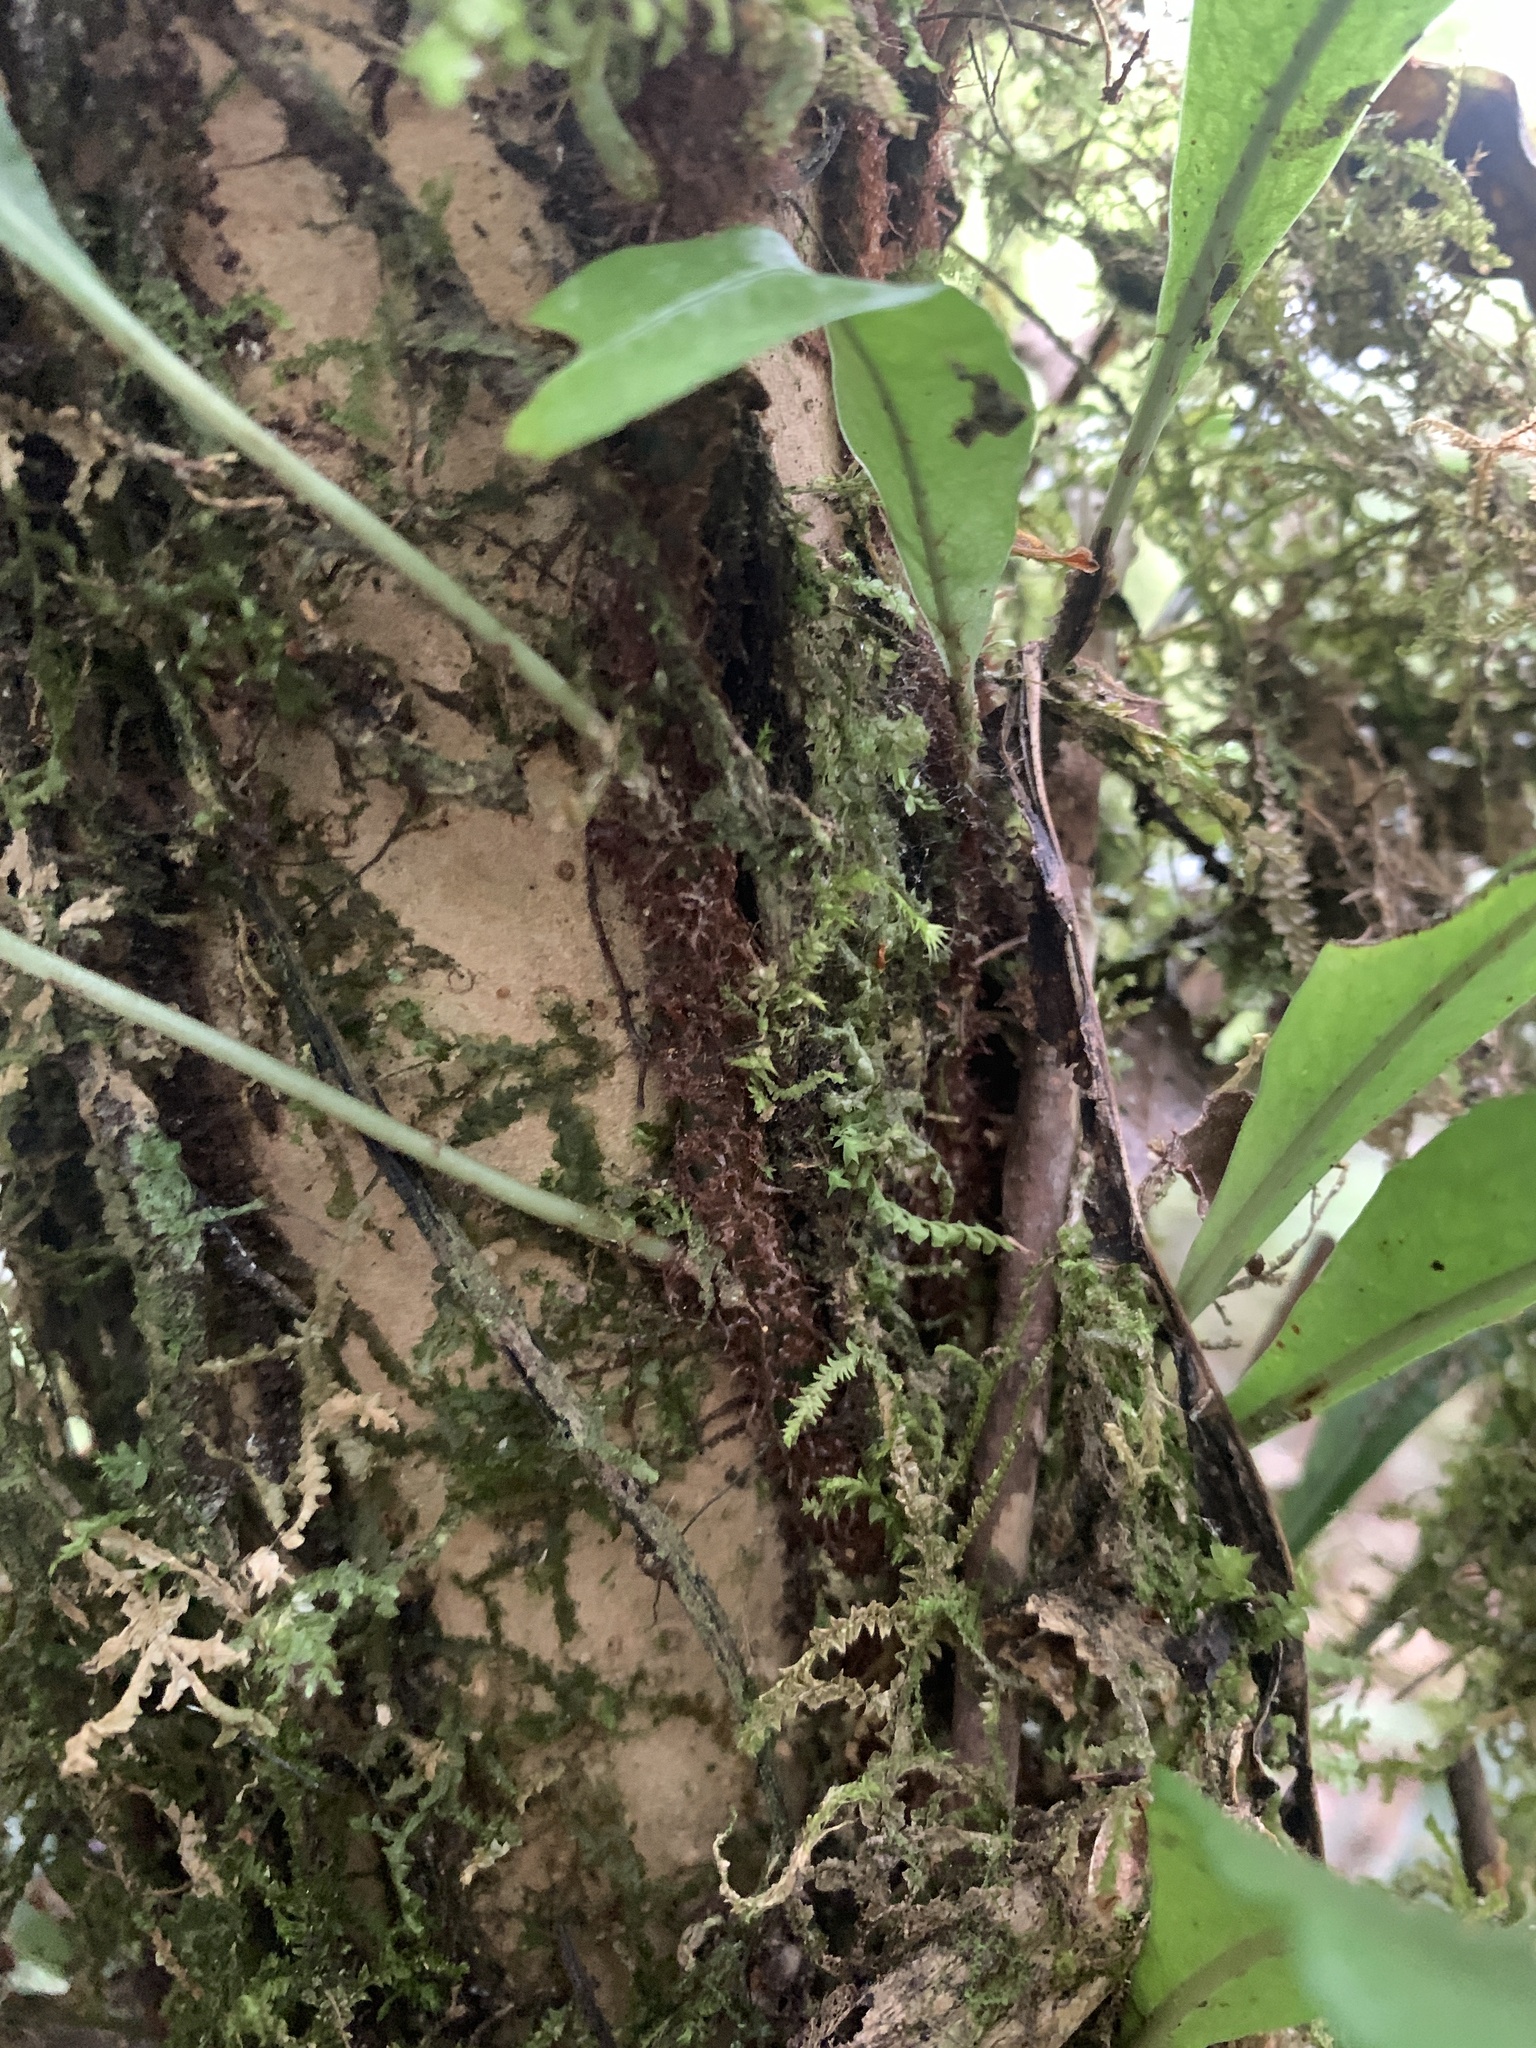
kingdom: Plantae
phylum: Tracheophyta
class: Polypodiopsida
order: Polypodiales
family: Polypodiaceae
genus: Lepisorus
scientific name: Lepisorus superficialis
